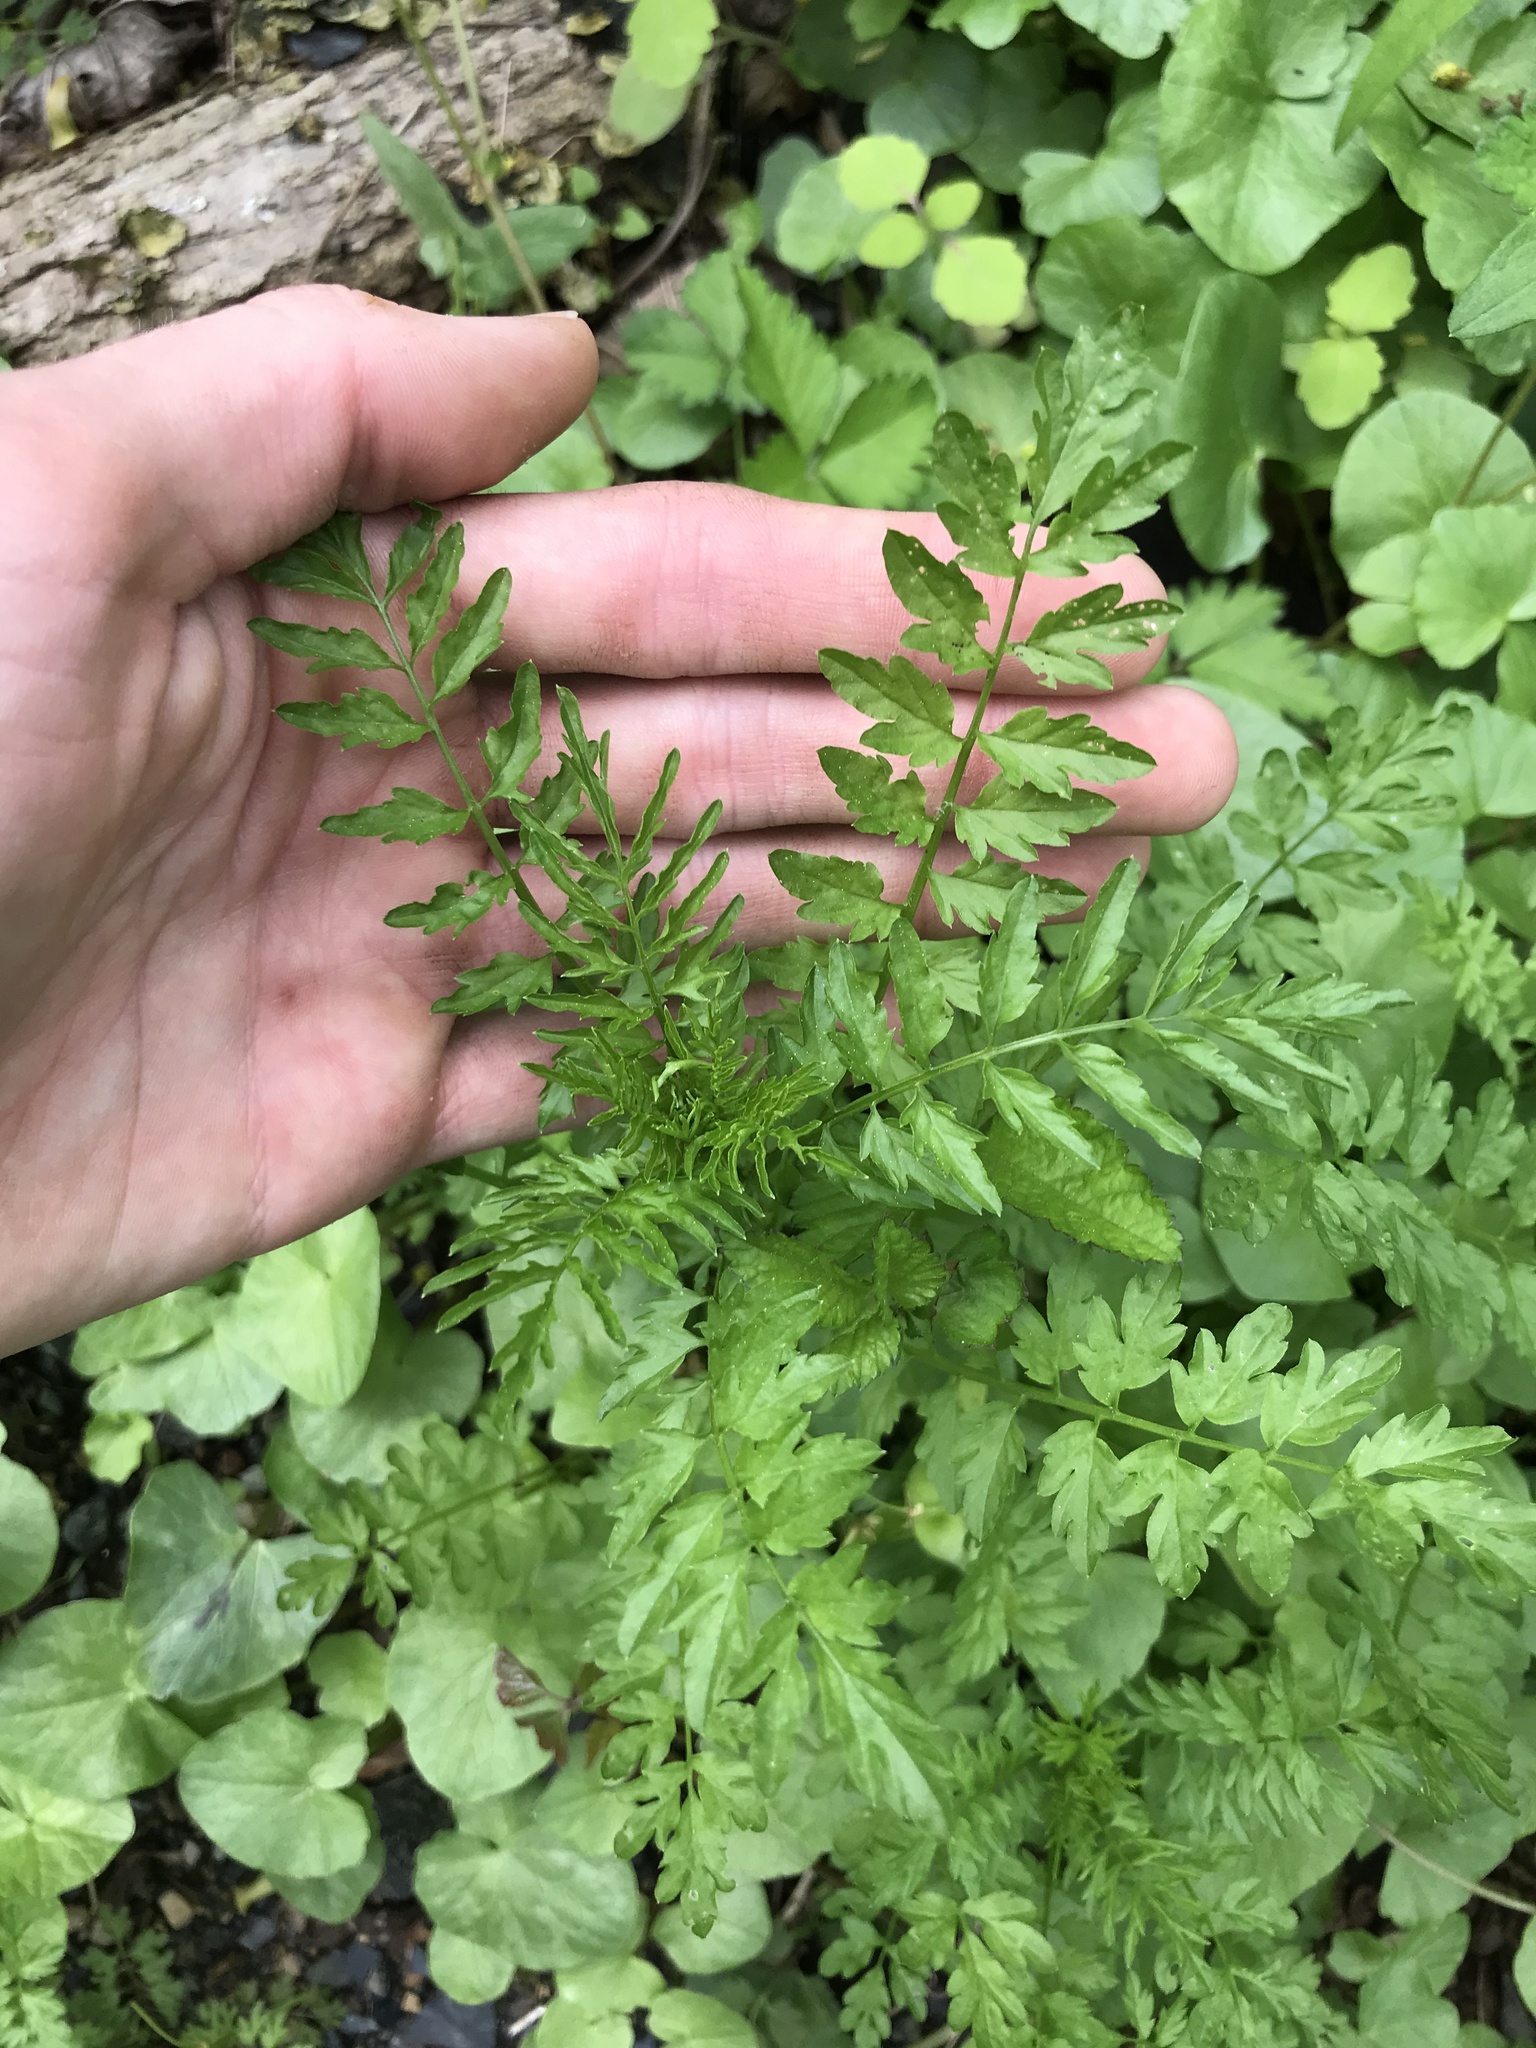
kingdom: Plantae
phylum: Tracheophyta
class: Magnoliopsida
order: Brassicales
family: Brassicaceae
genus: Cardamine
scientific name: Cardamine impatiens
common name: Narrow-leaved bitter-cress
